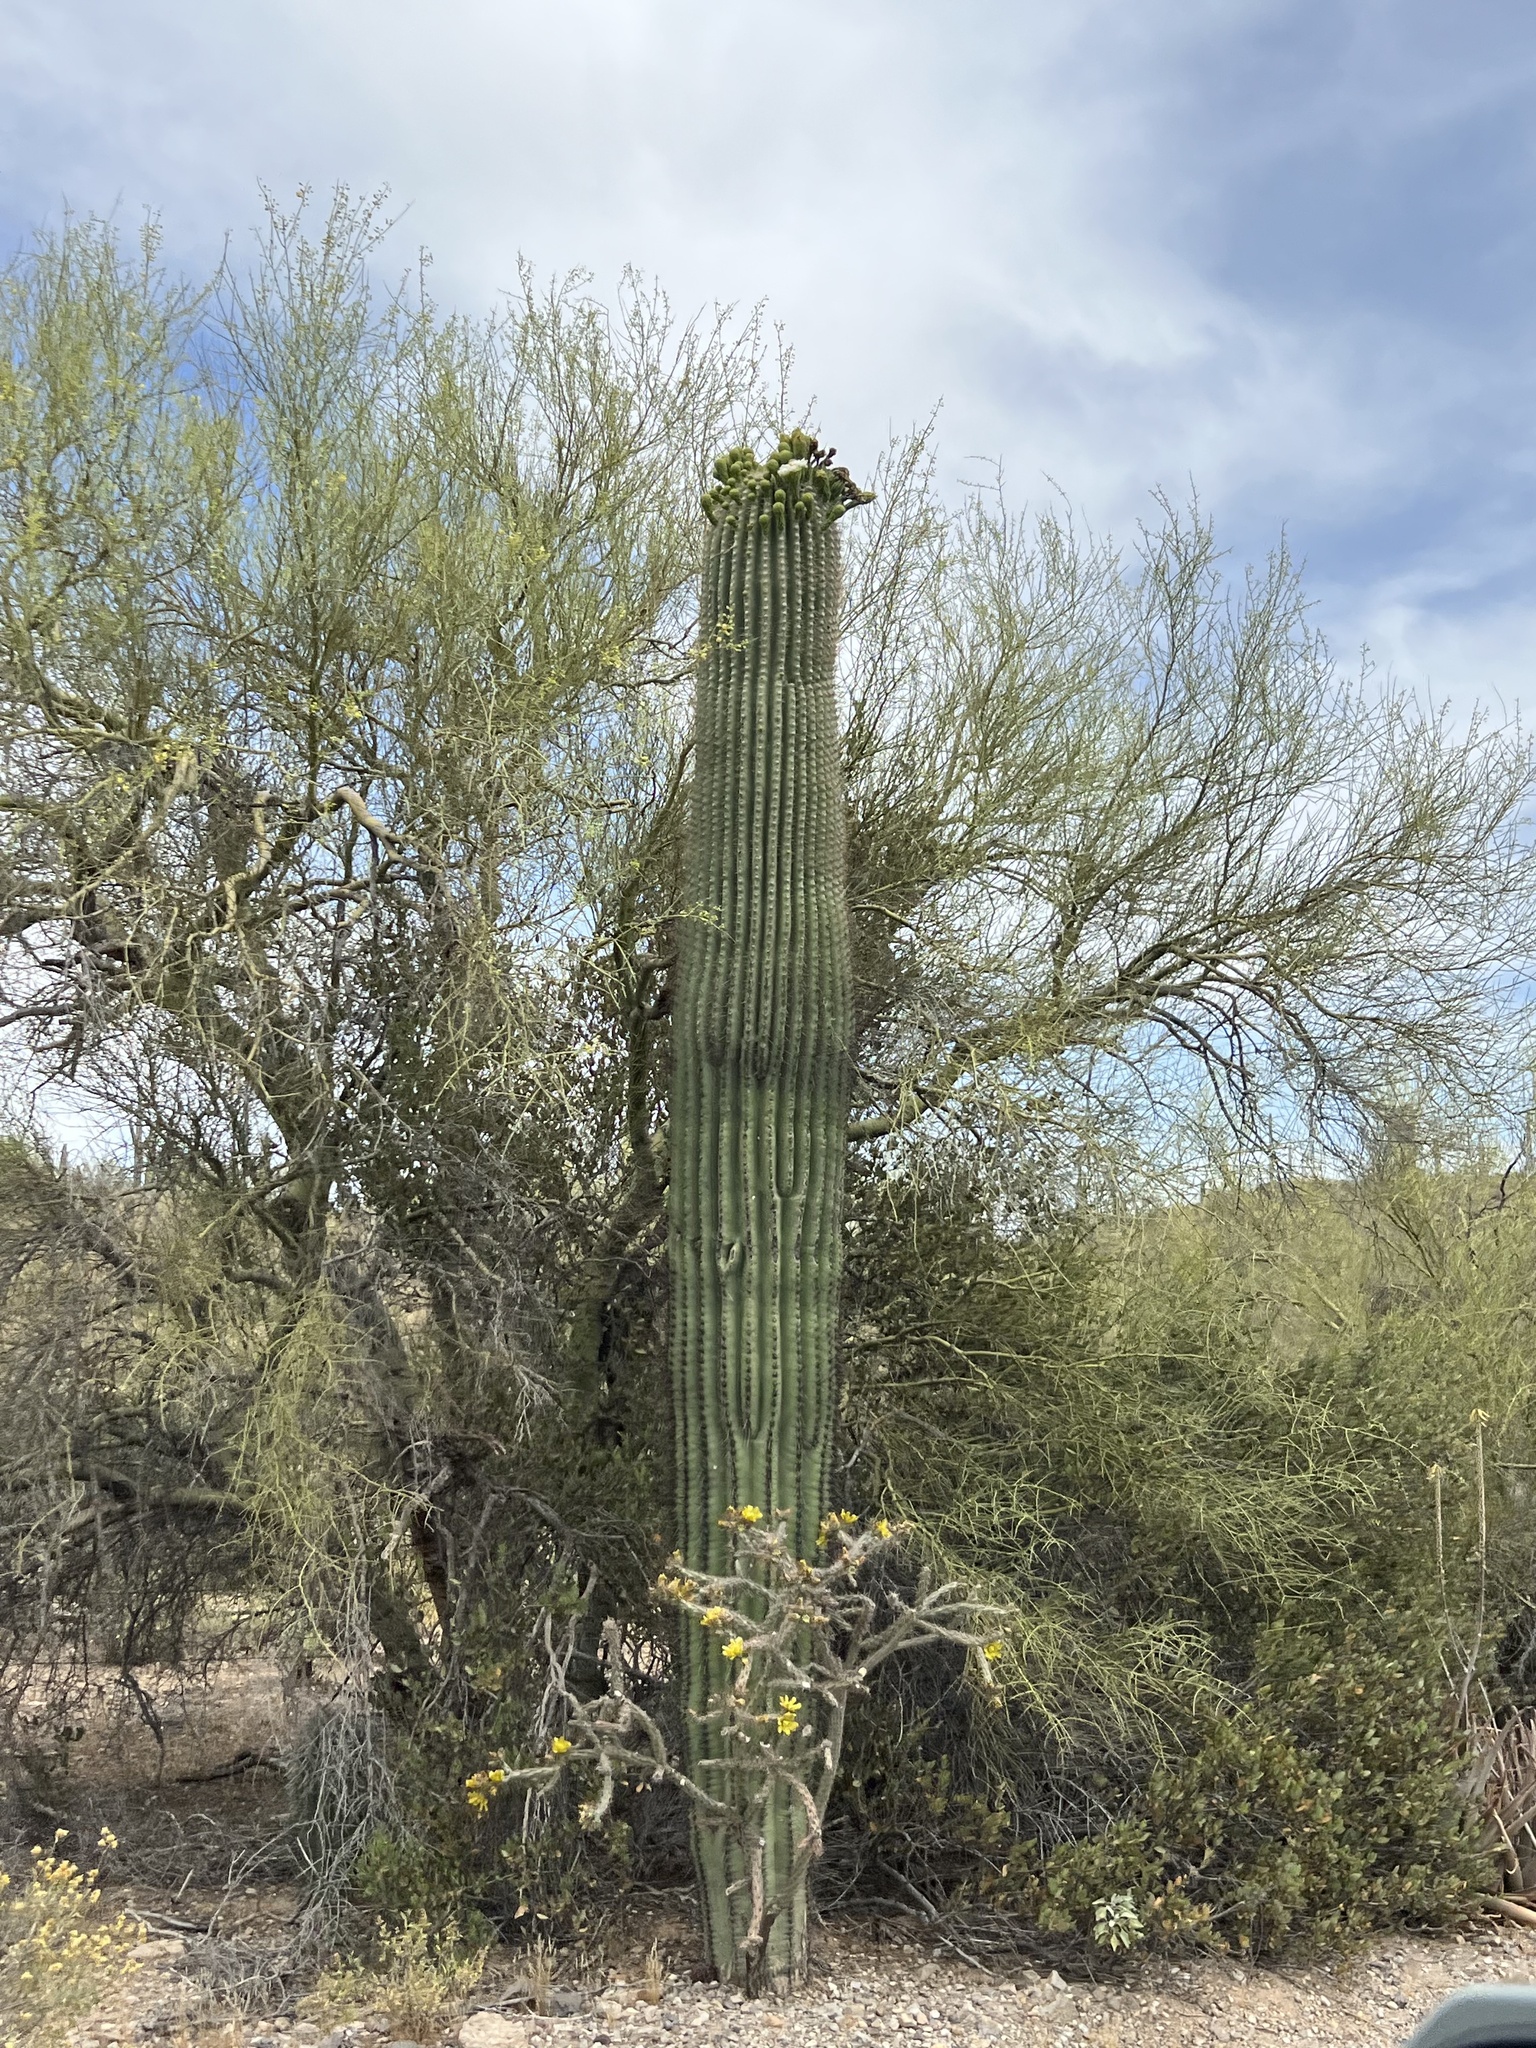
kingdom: Plantae
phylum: Tracheophyta
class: Magnoliopsida
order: Caryophyllales
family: Cactaceae
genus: Carnegiea
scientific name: Carnegiea gigantea
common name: Saguaro
